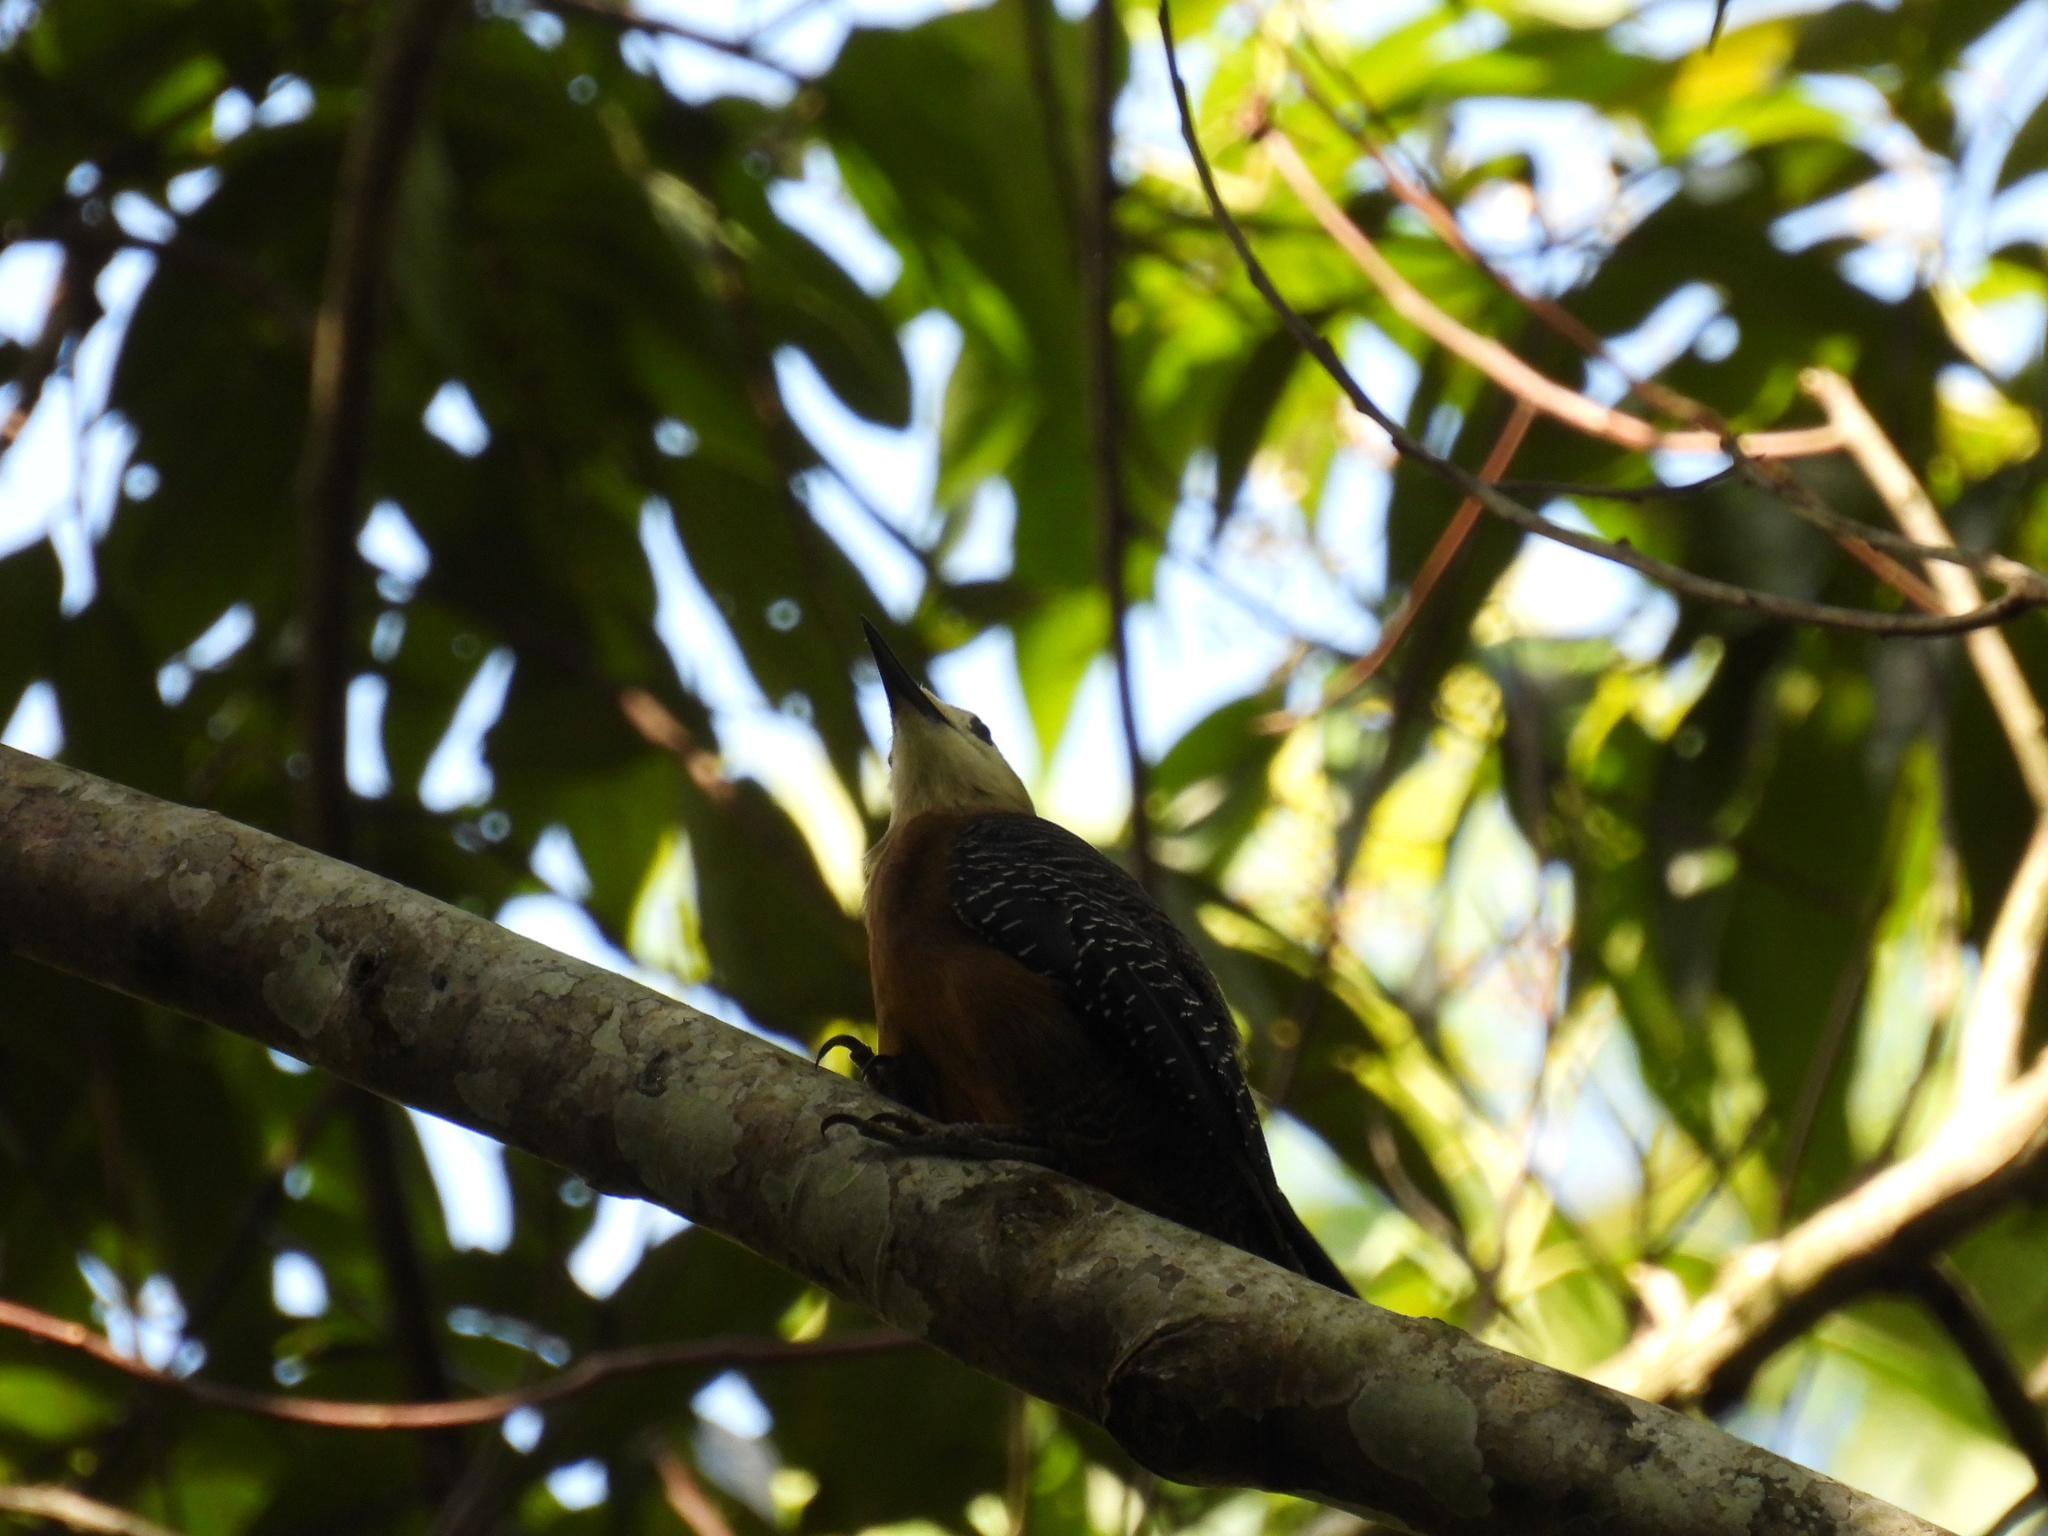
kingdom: Animalia
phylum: Chordata
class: Aves
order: Piciformes
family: Picidae
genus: Melanerpes
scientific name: Melanerpes radiolatus
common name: Jamaican woodpecker
